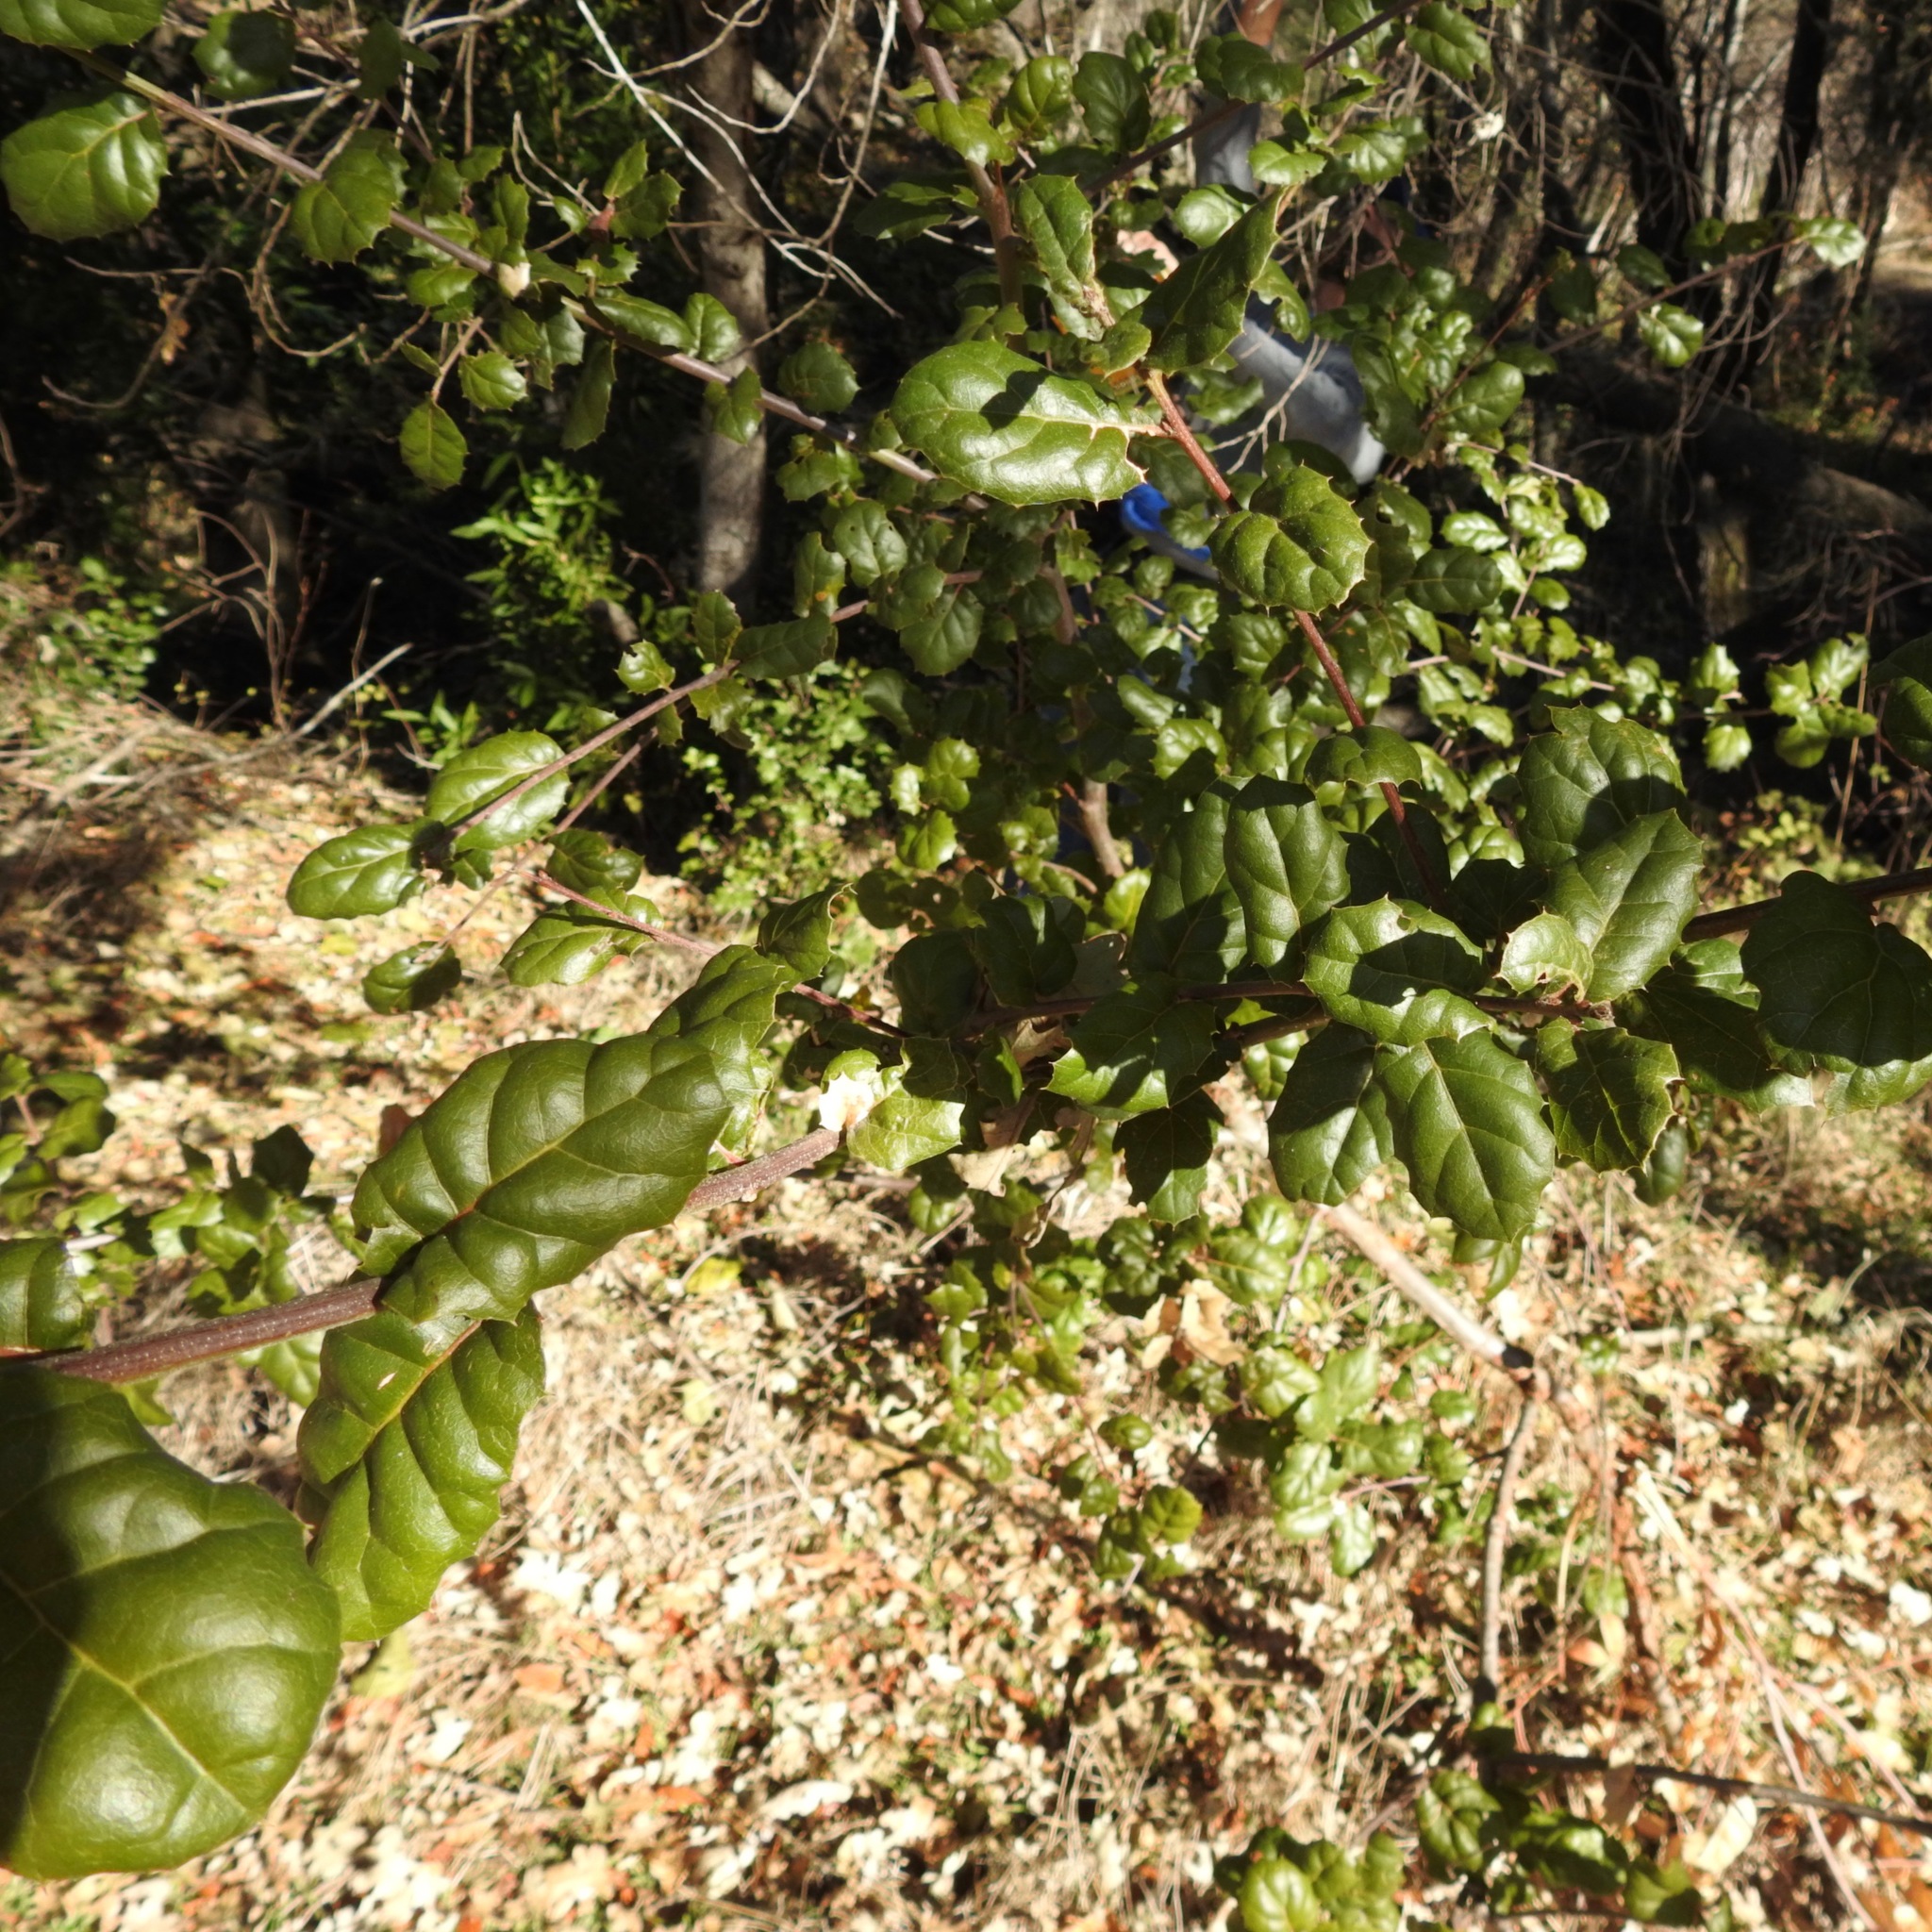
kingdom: Plantae
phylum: Tracheophyta
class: Magnoliopsida
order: Fagales
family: Fagaceae
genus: Quercus
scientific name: Quercus agrifolia
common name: California live oak
